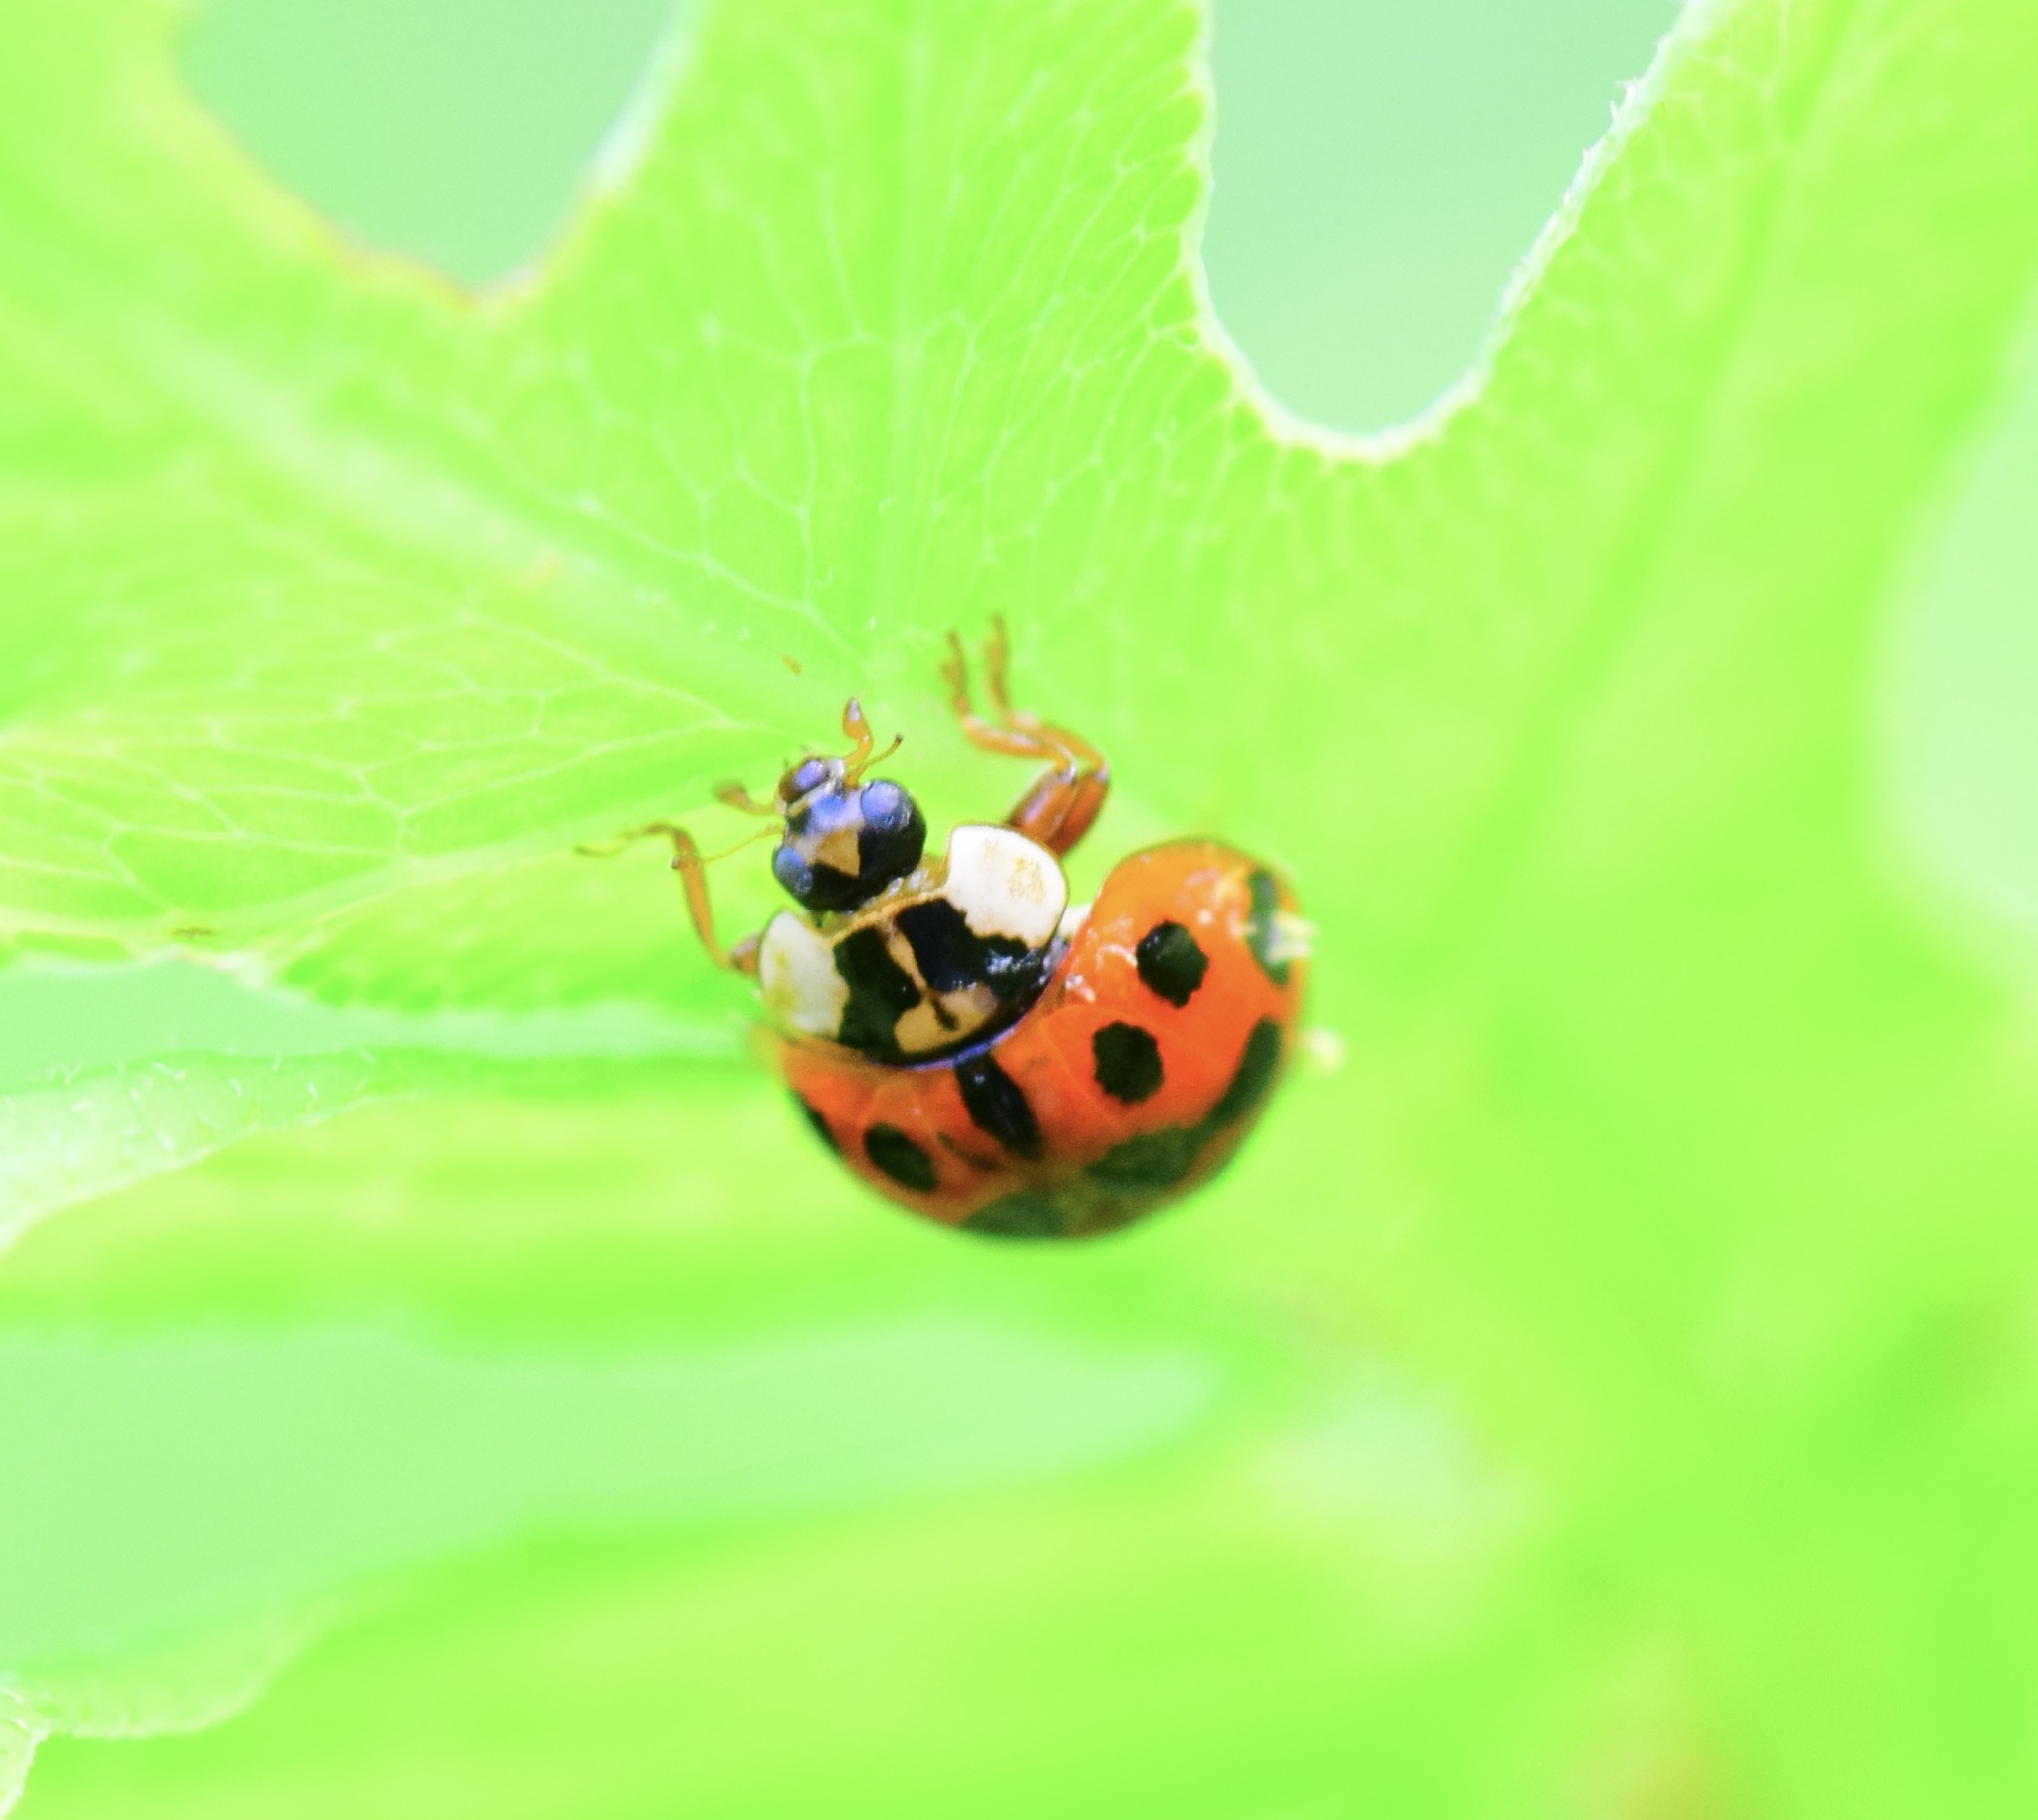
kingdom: Animalia
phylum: Arthropoda
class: Insecta
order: Coleoptera
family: Coccinellidae
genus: Harmonia
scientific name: Harmonia axyridis
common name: Harlequin ladybird
